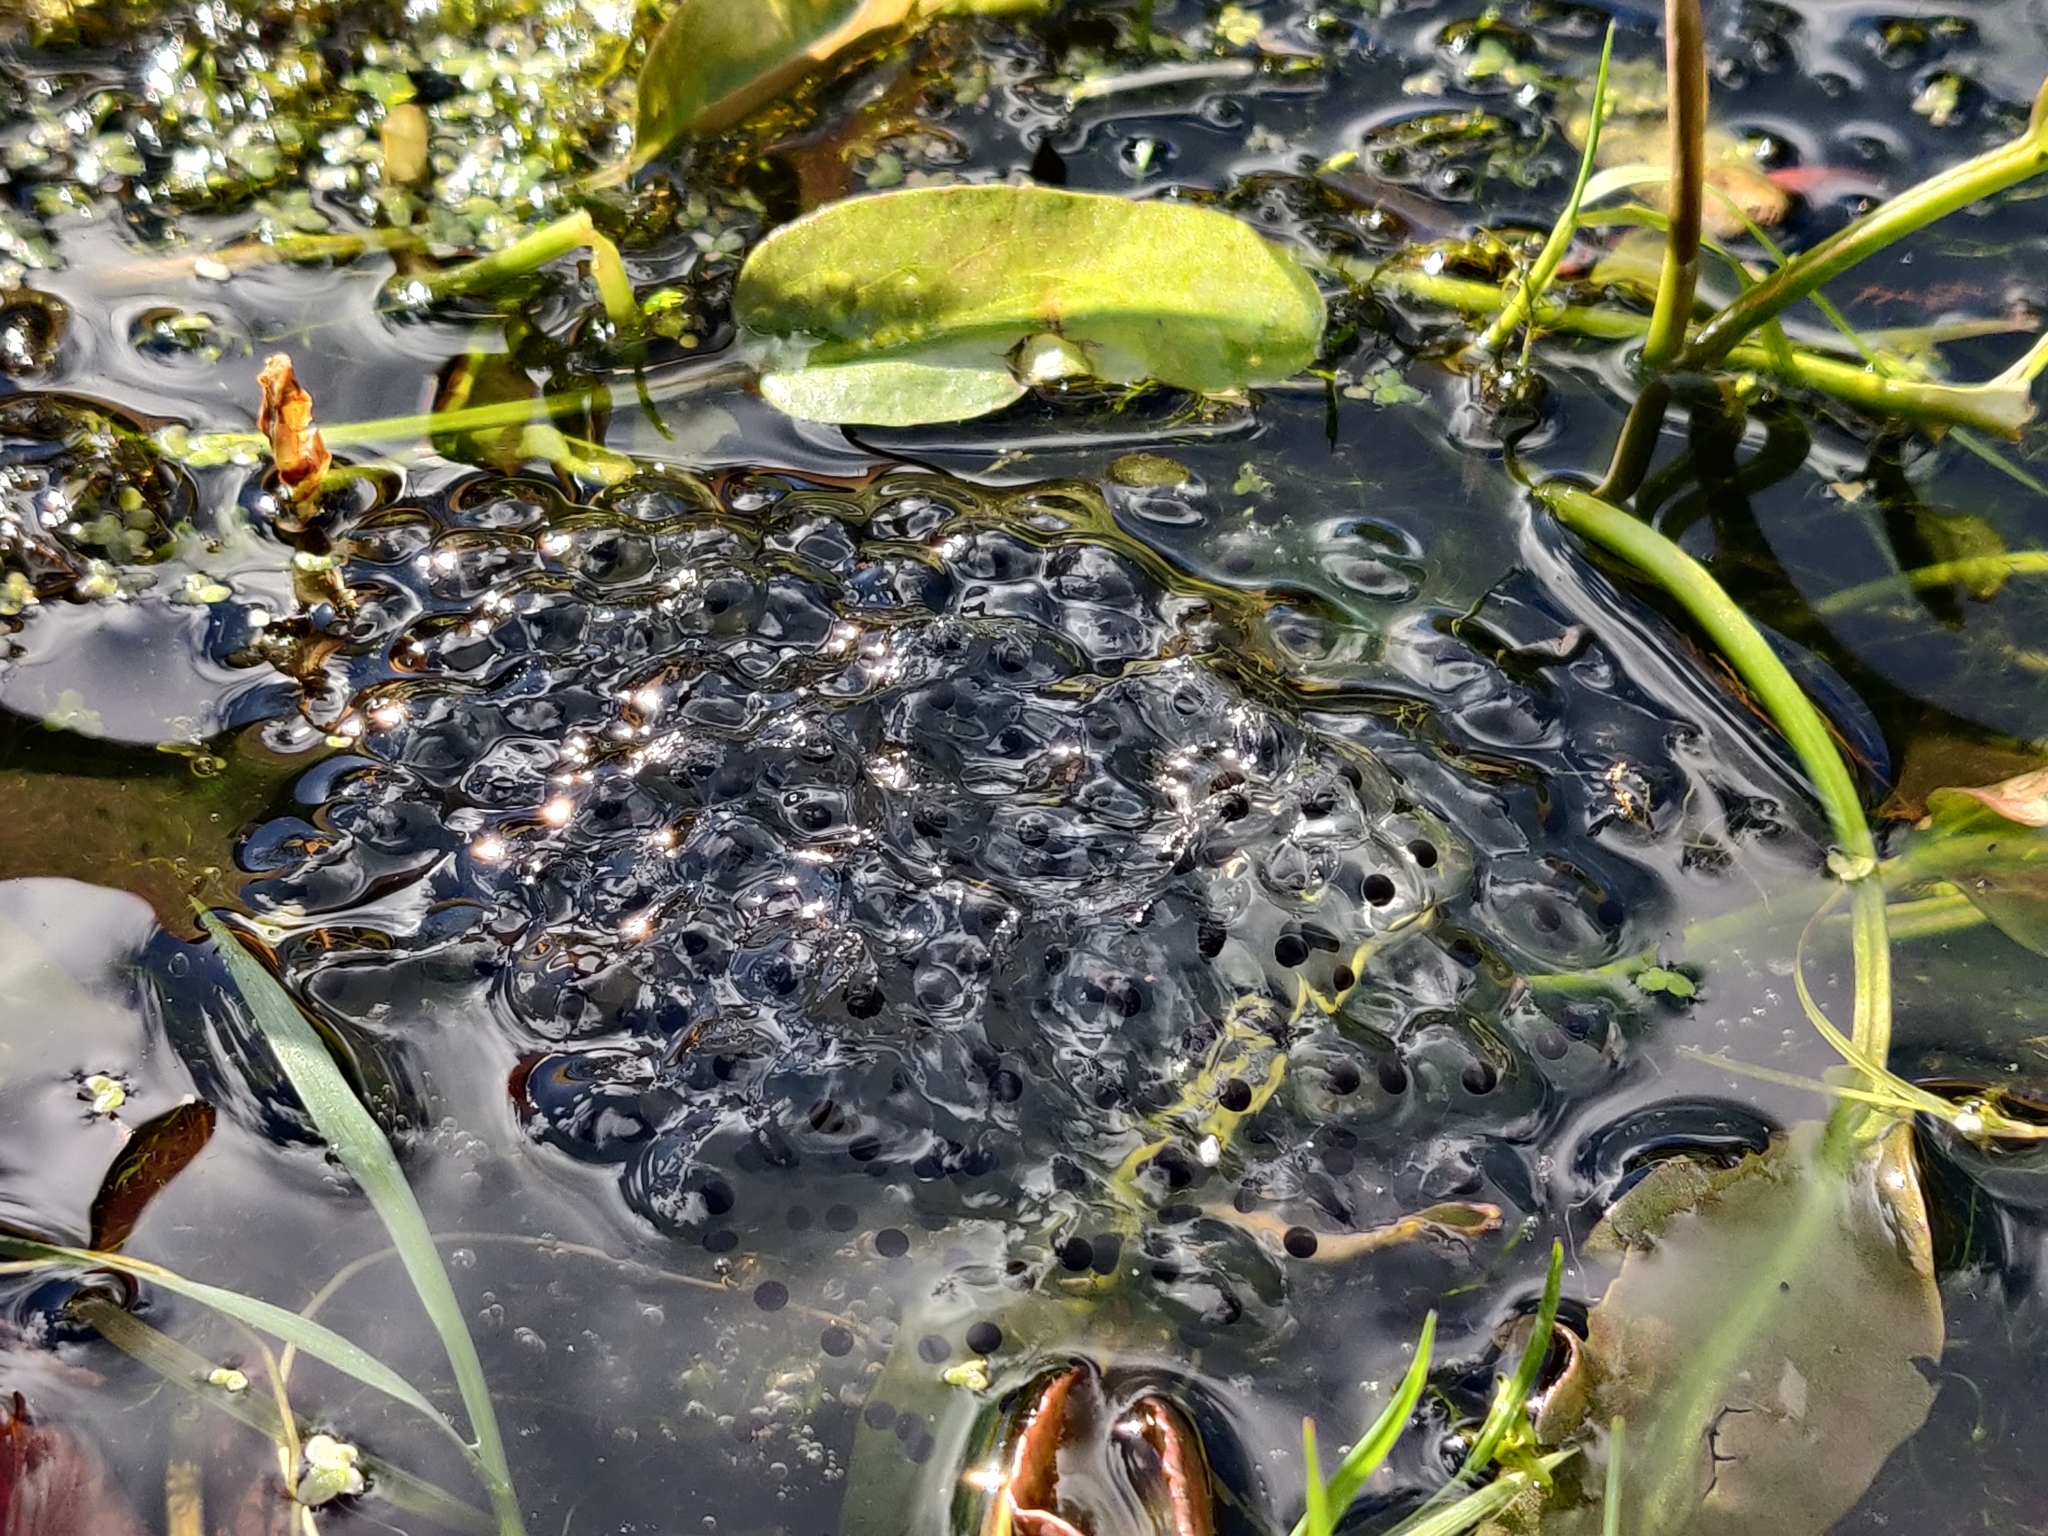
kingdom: Animalia
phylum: Chordata
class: Amphibia
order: Anura
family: Ranidae
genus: Rana
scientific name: Rana temporaria
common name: Common frog
